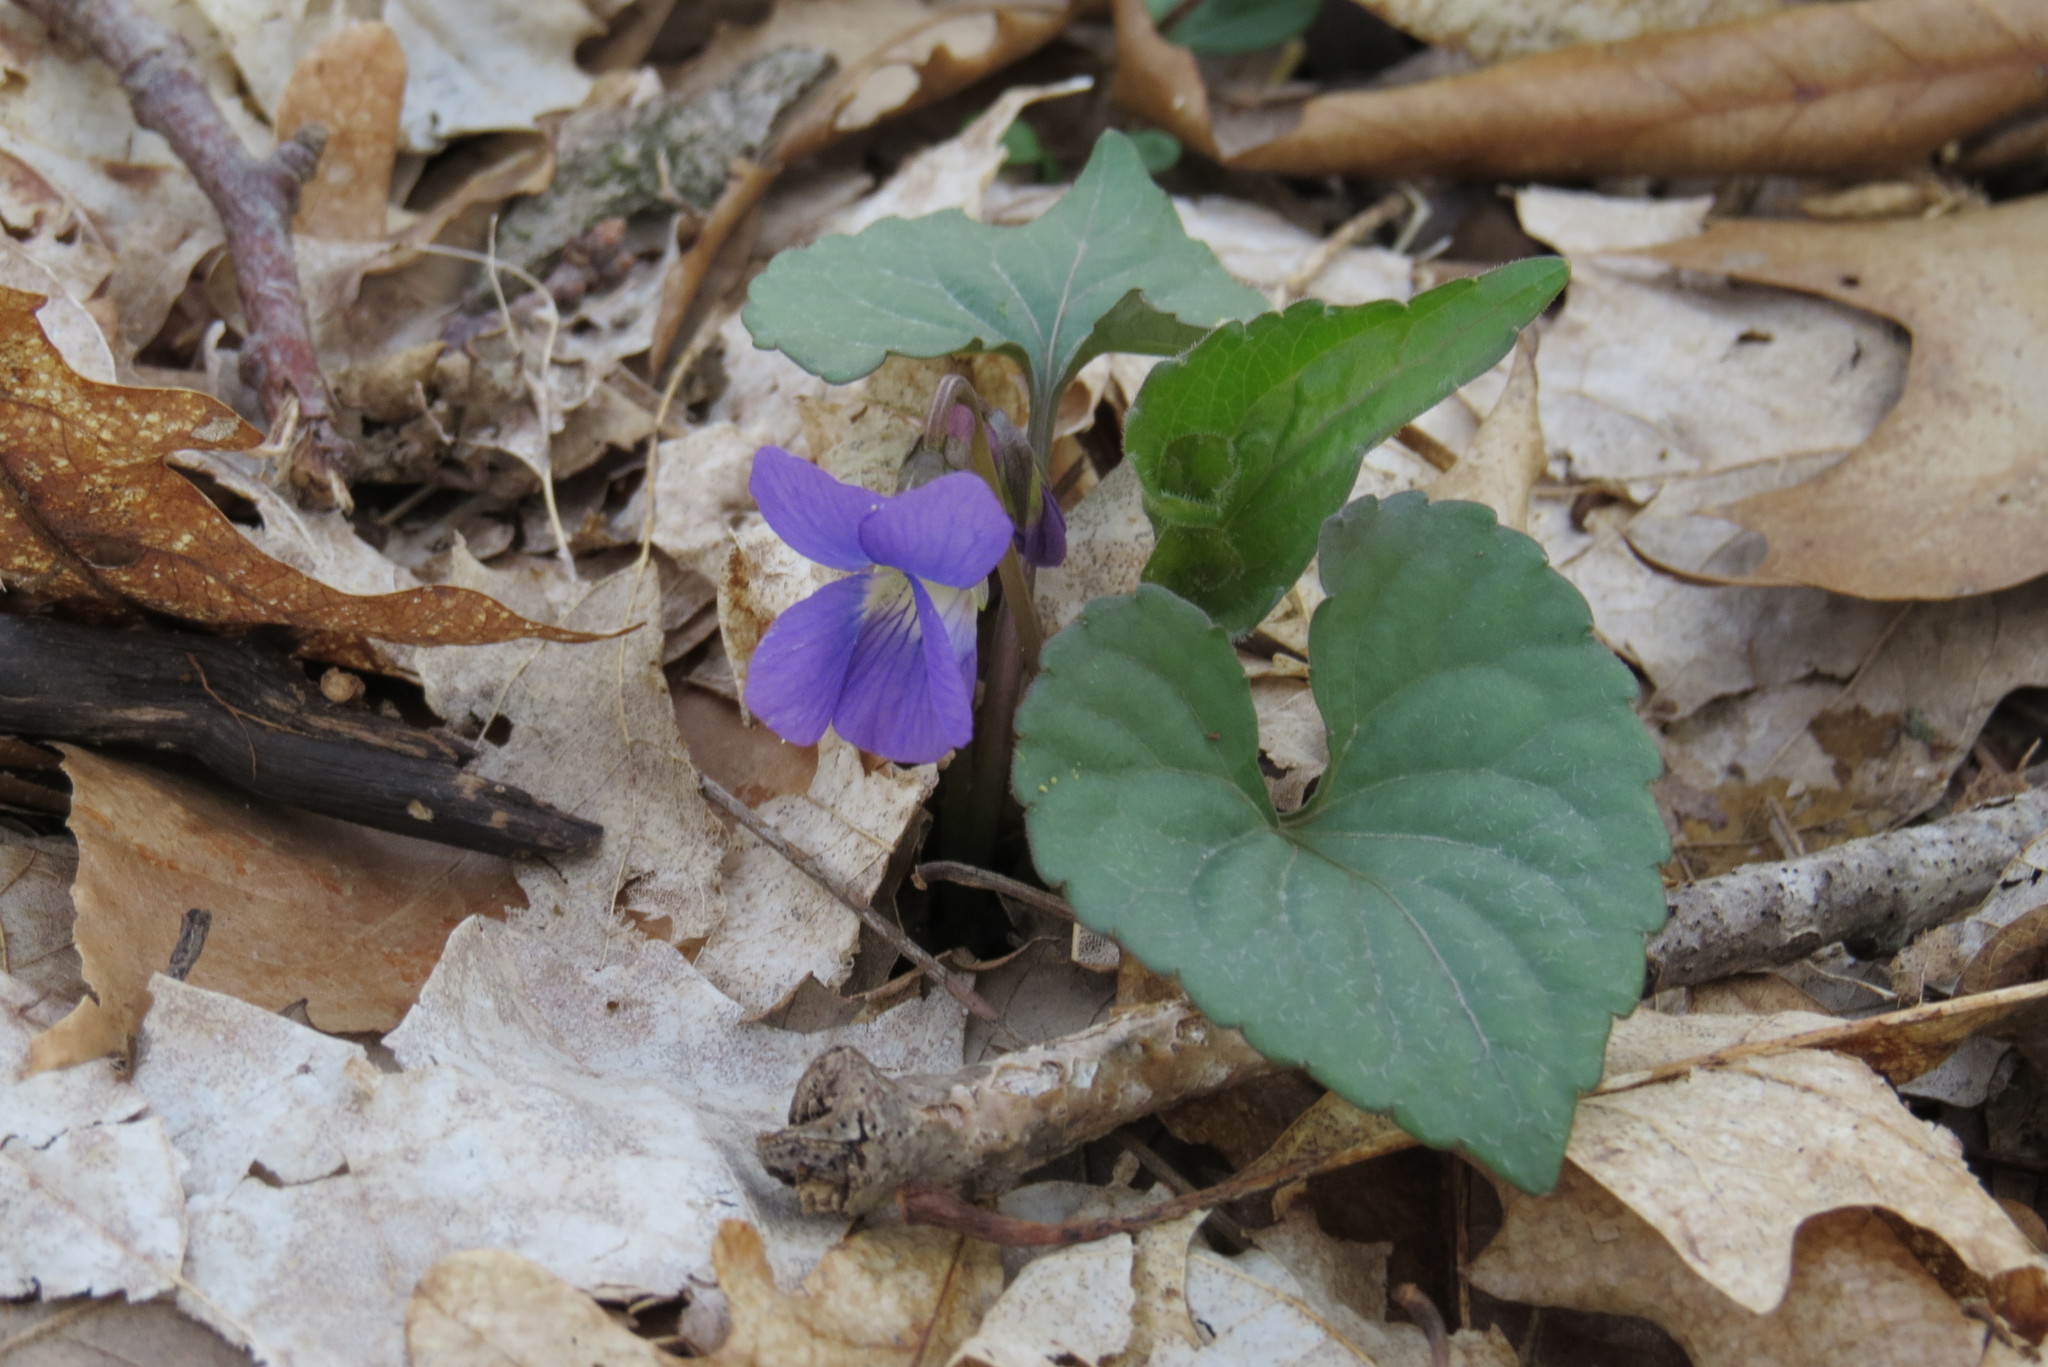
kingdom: Plantae
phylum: Tracheophyta
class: Magnoliopsida
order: Malpighiales
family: Violaceae
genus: Viola
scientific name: Viola sororia
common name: Dooryard violet
